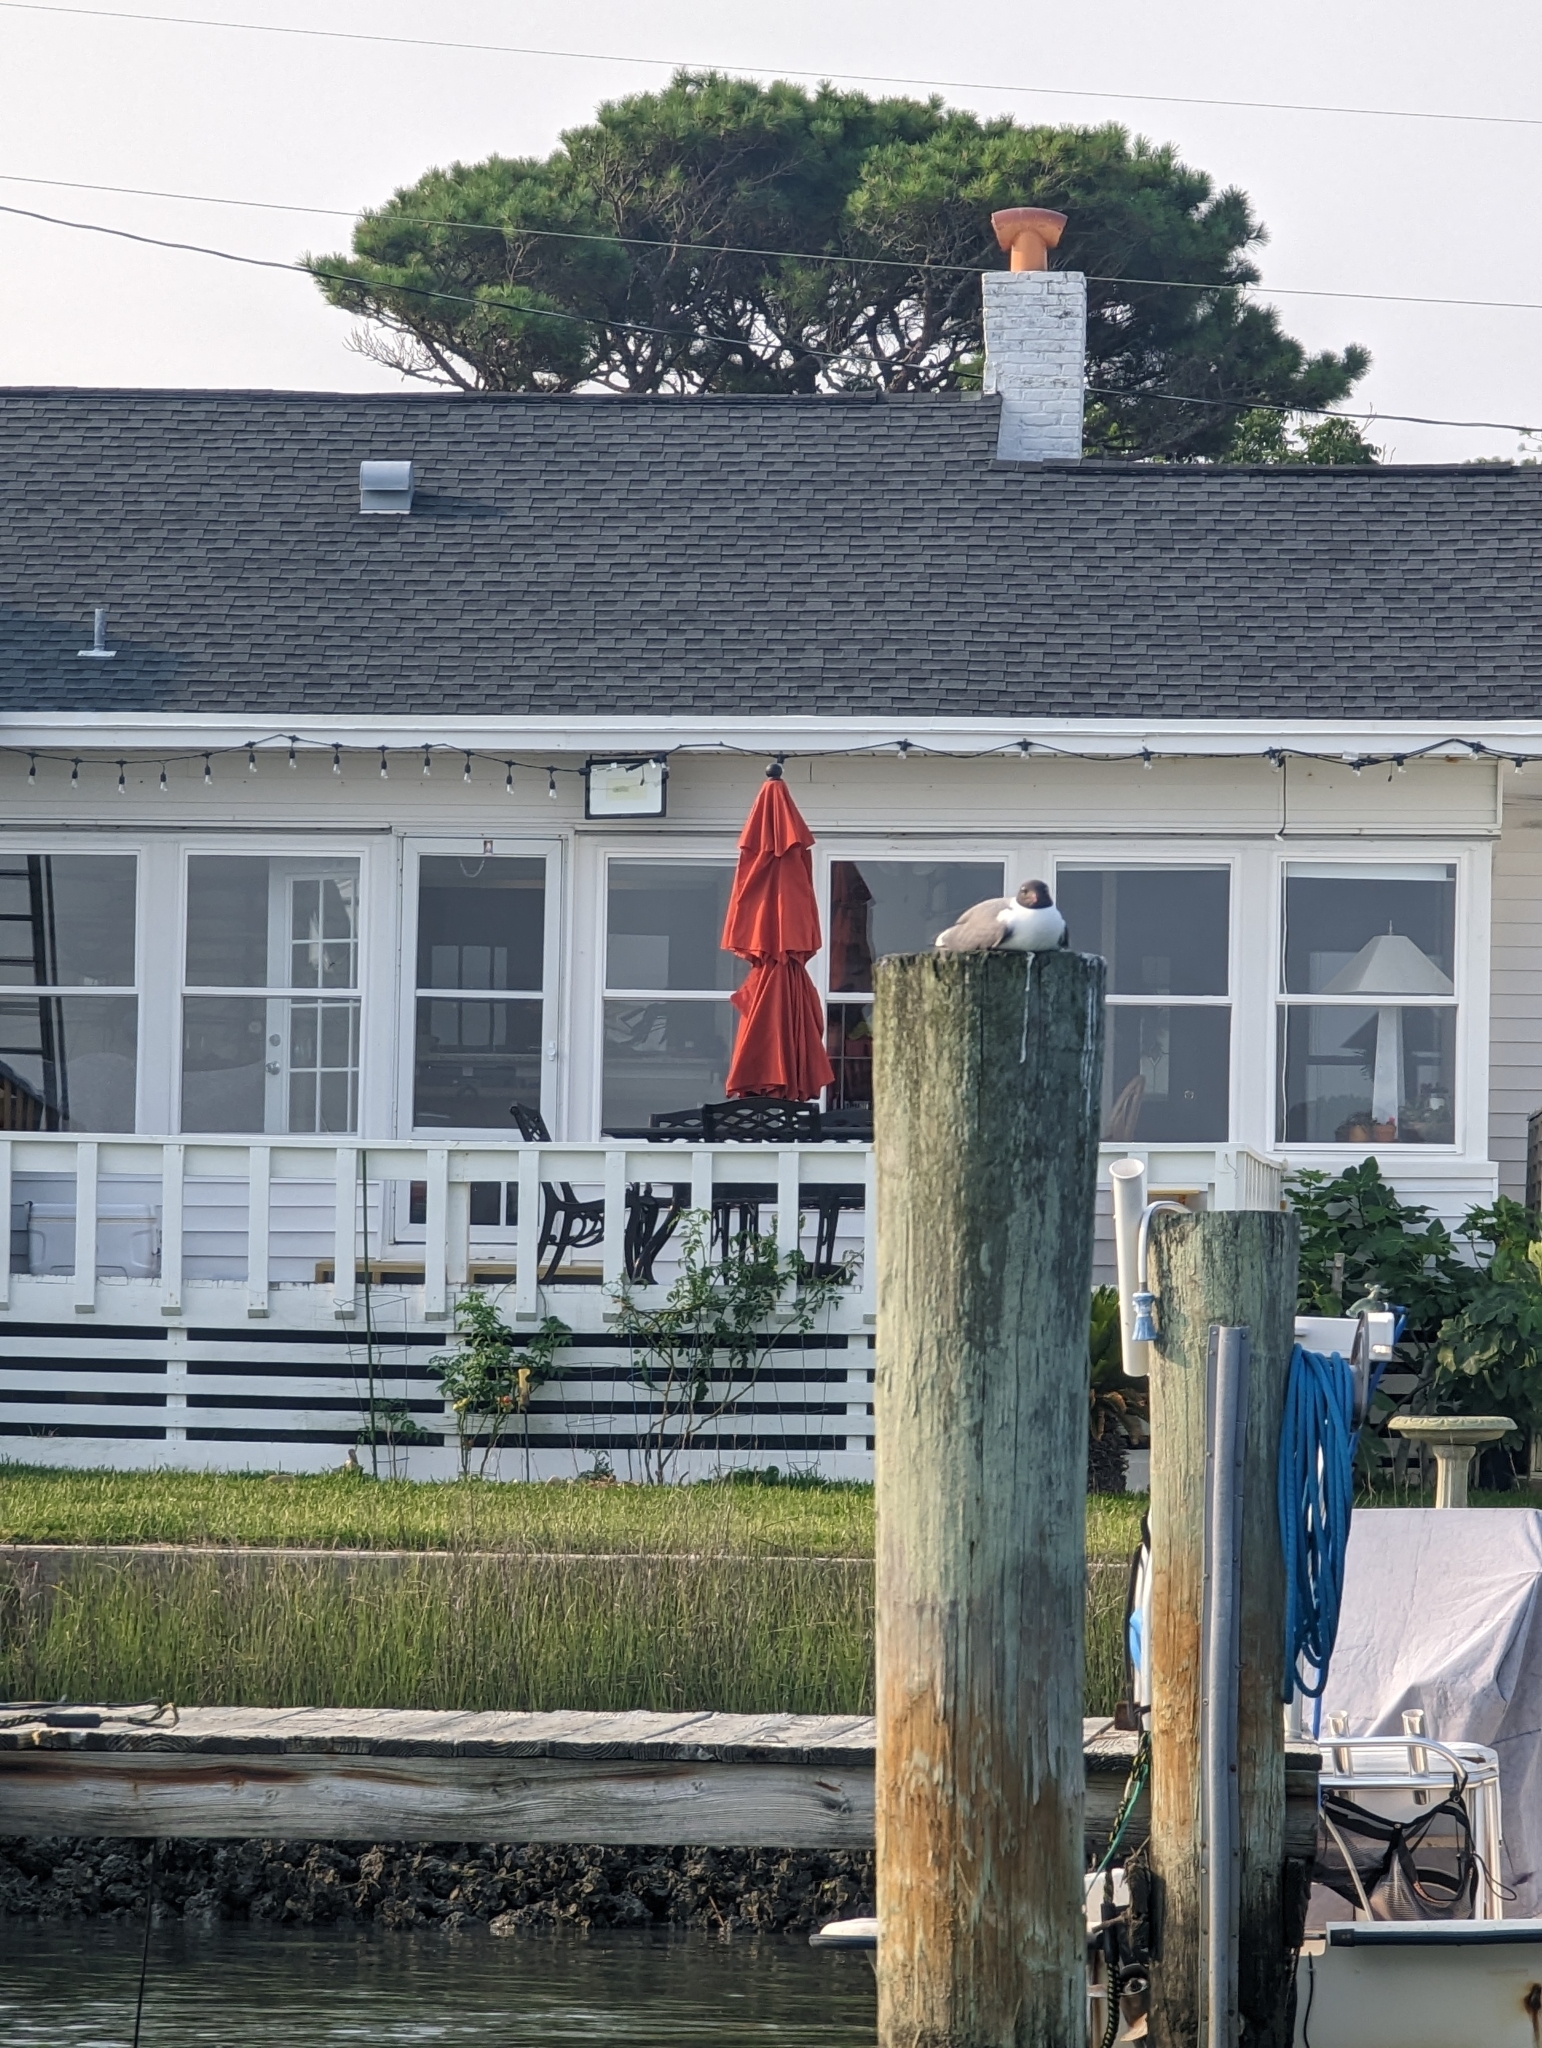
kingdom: Animalia
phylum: Chordata
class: Aves
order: Charadriiformes
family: Laridae
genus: Leucophaeus
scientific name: Leucophaeus atricilla
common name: Laughing gull
